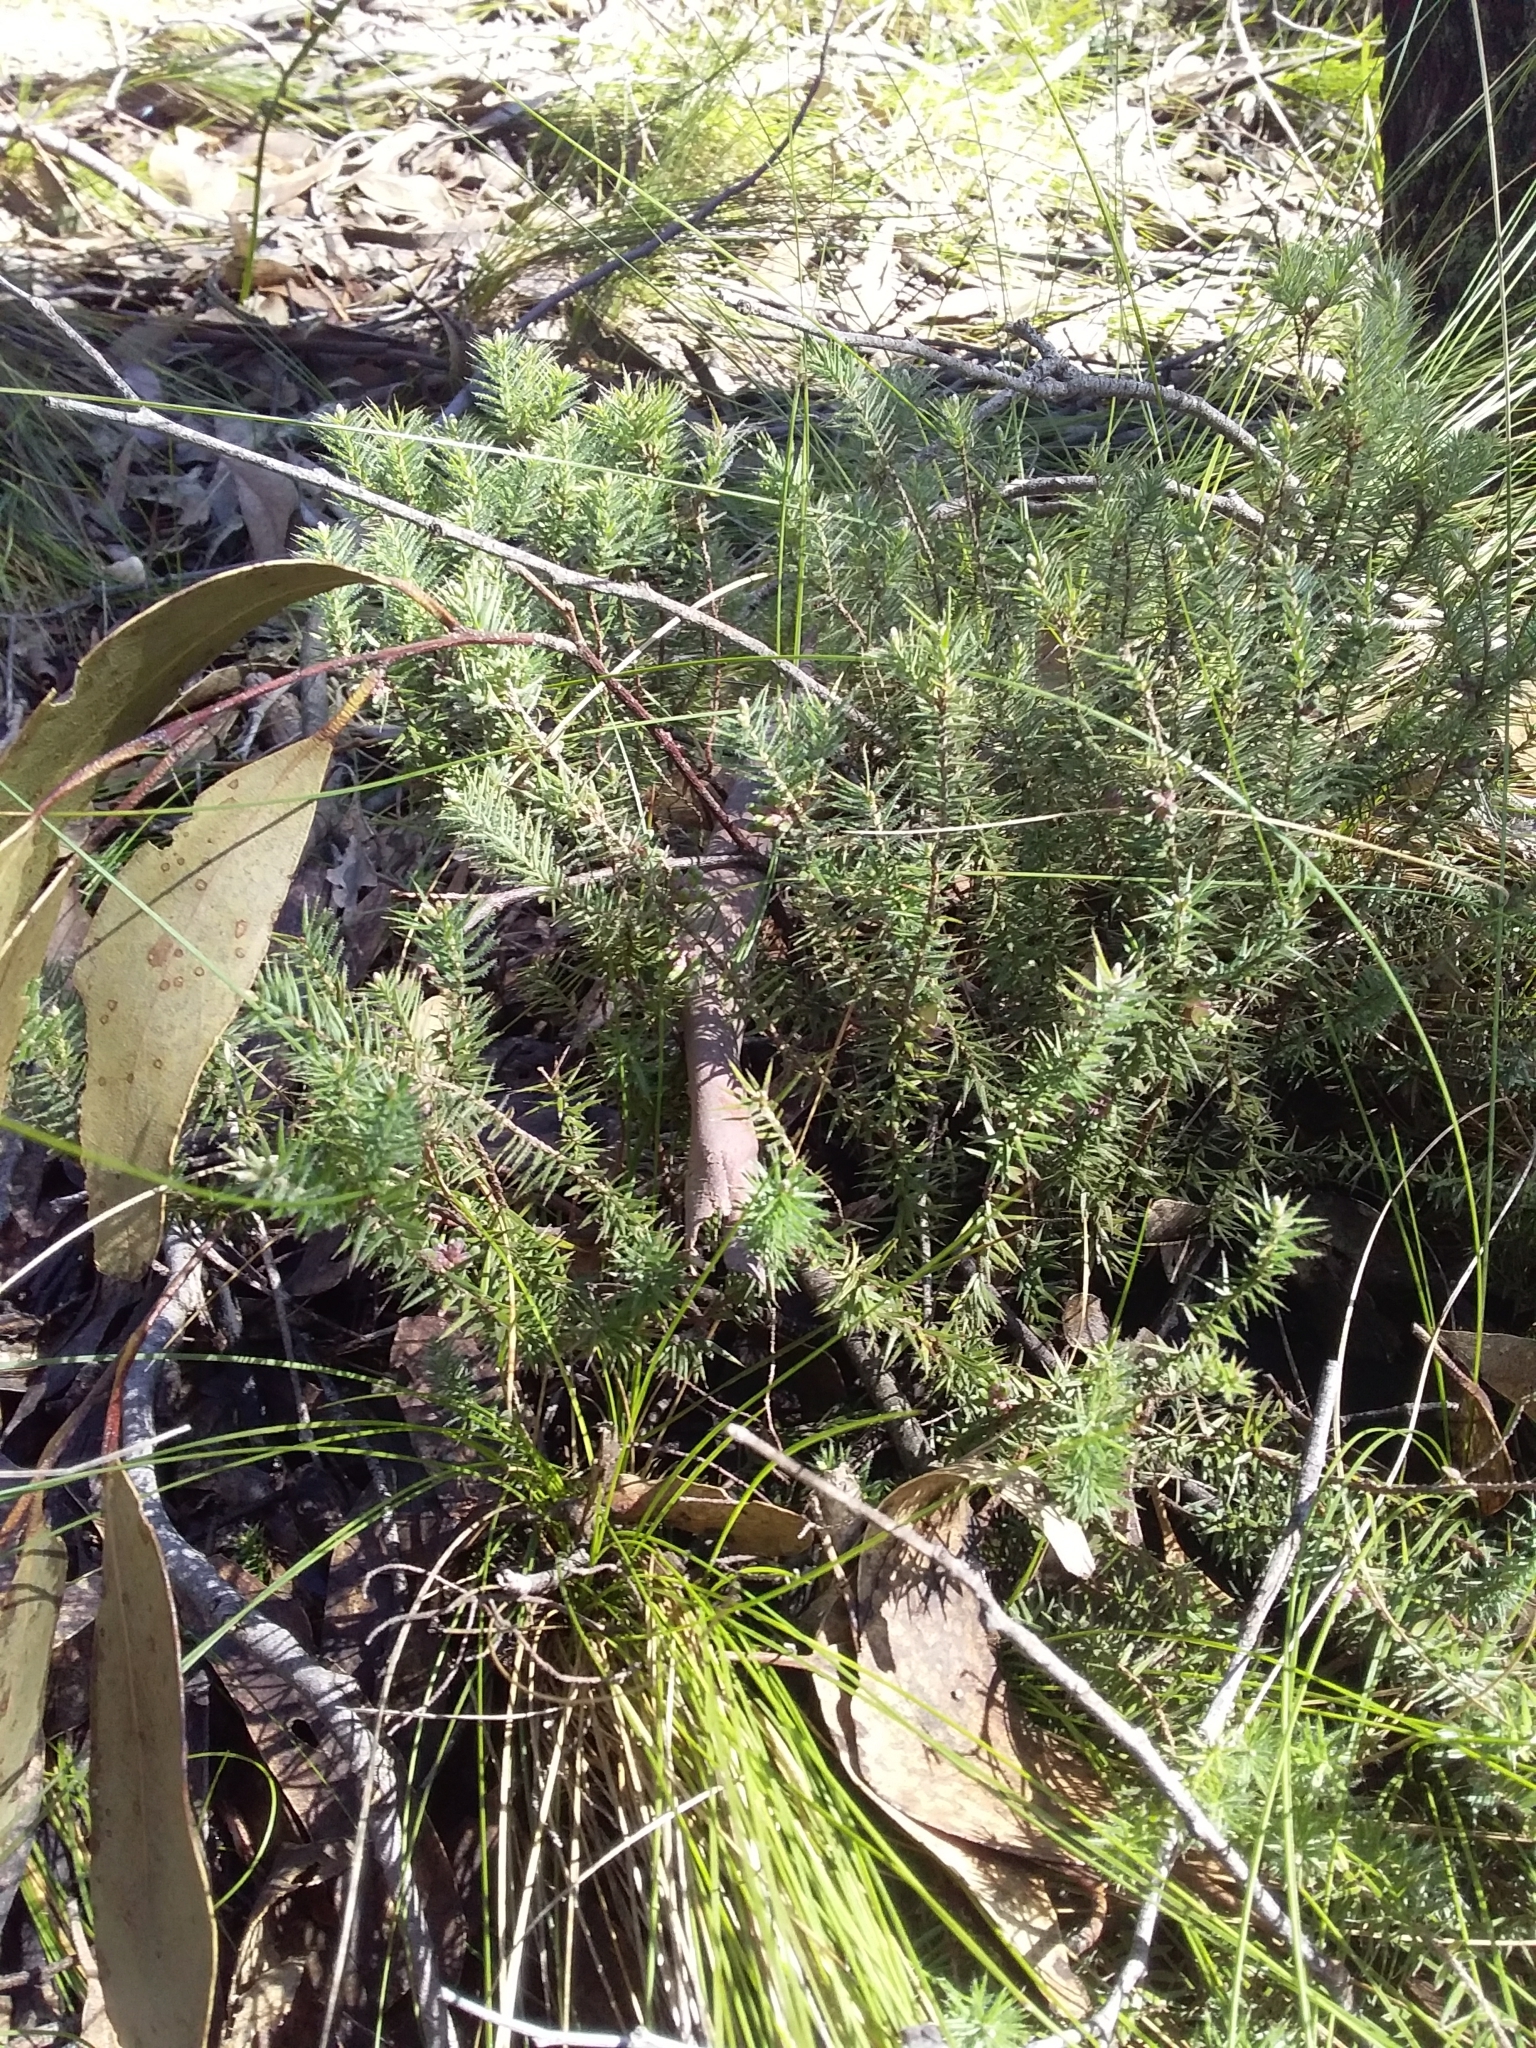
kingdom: Plantae
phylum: Tracheophyta
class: Magnoliopsida
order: Ericales
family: Ericaceae
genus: Acrotriche
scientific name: Acrotriche serrulata
